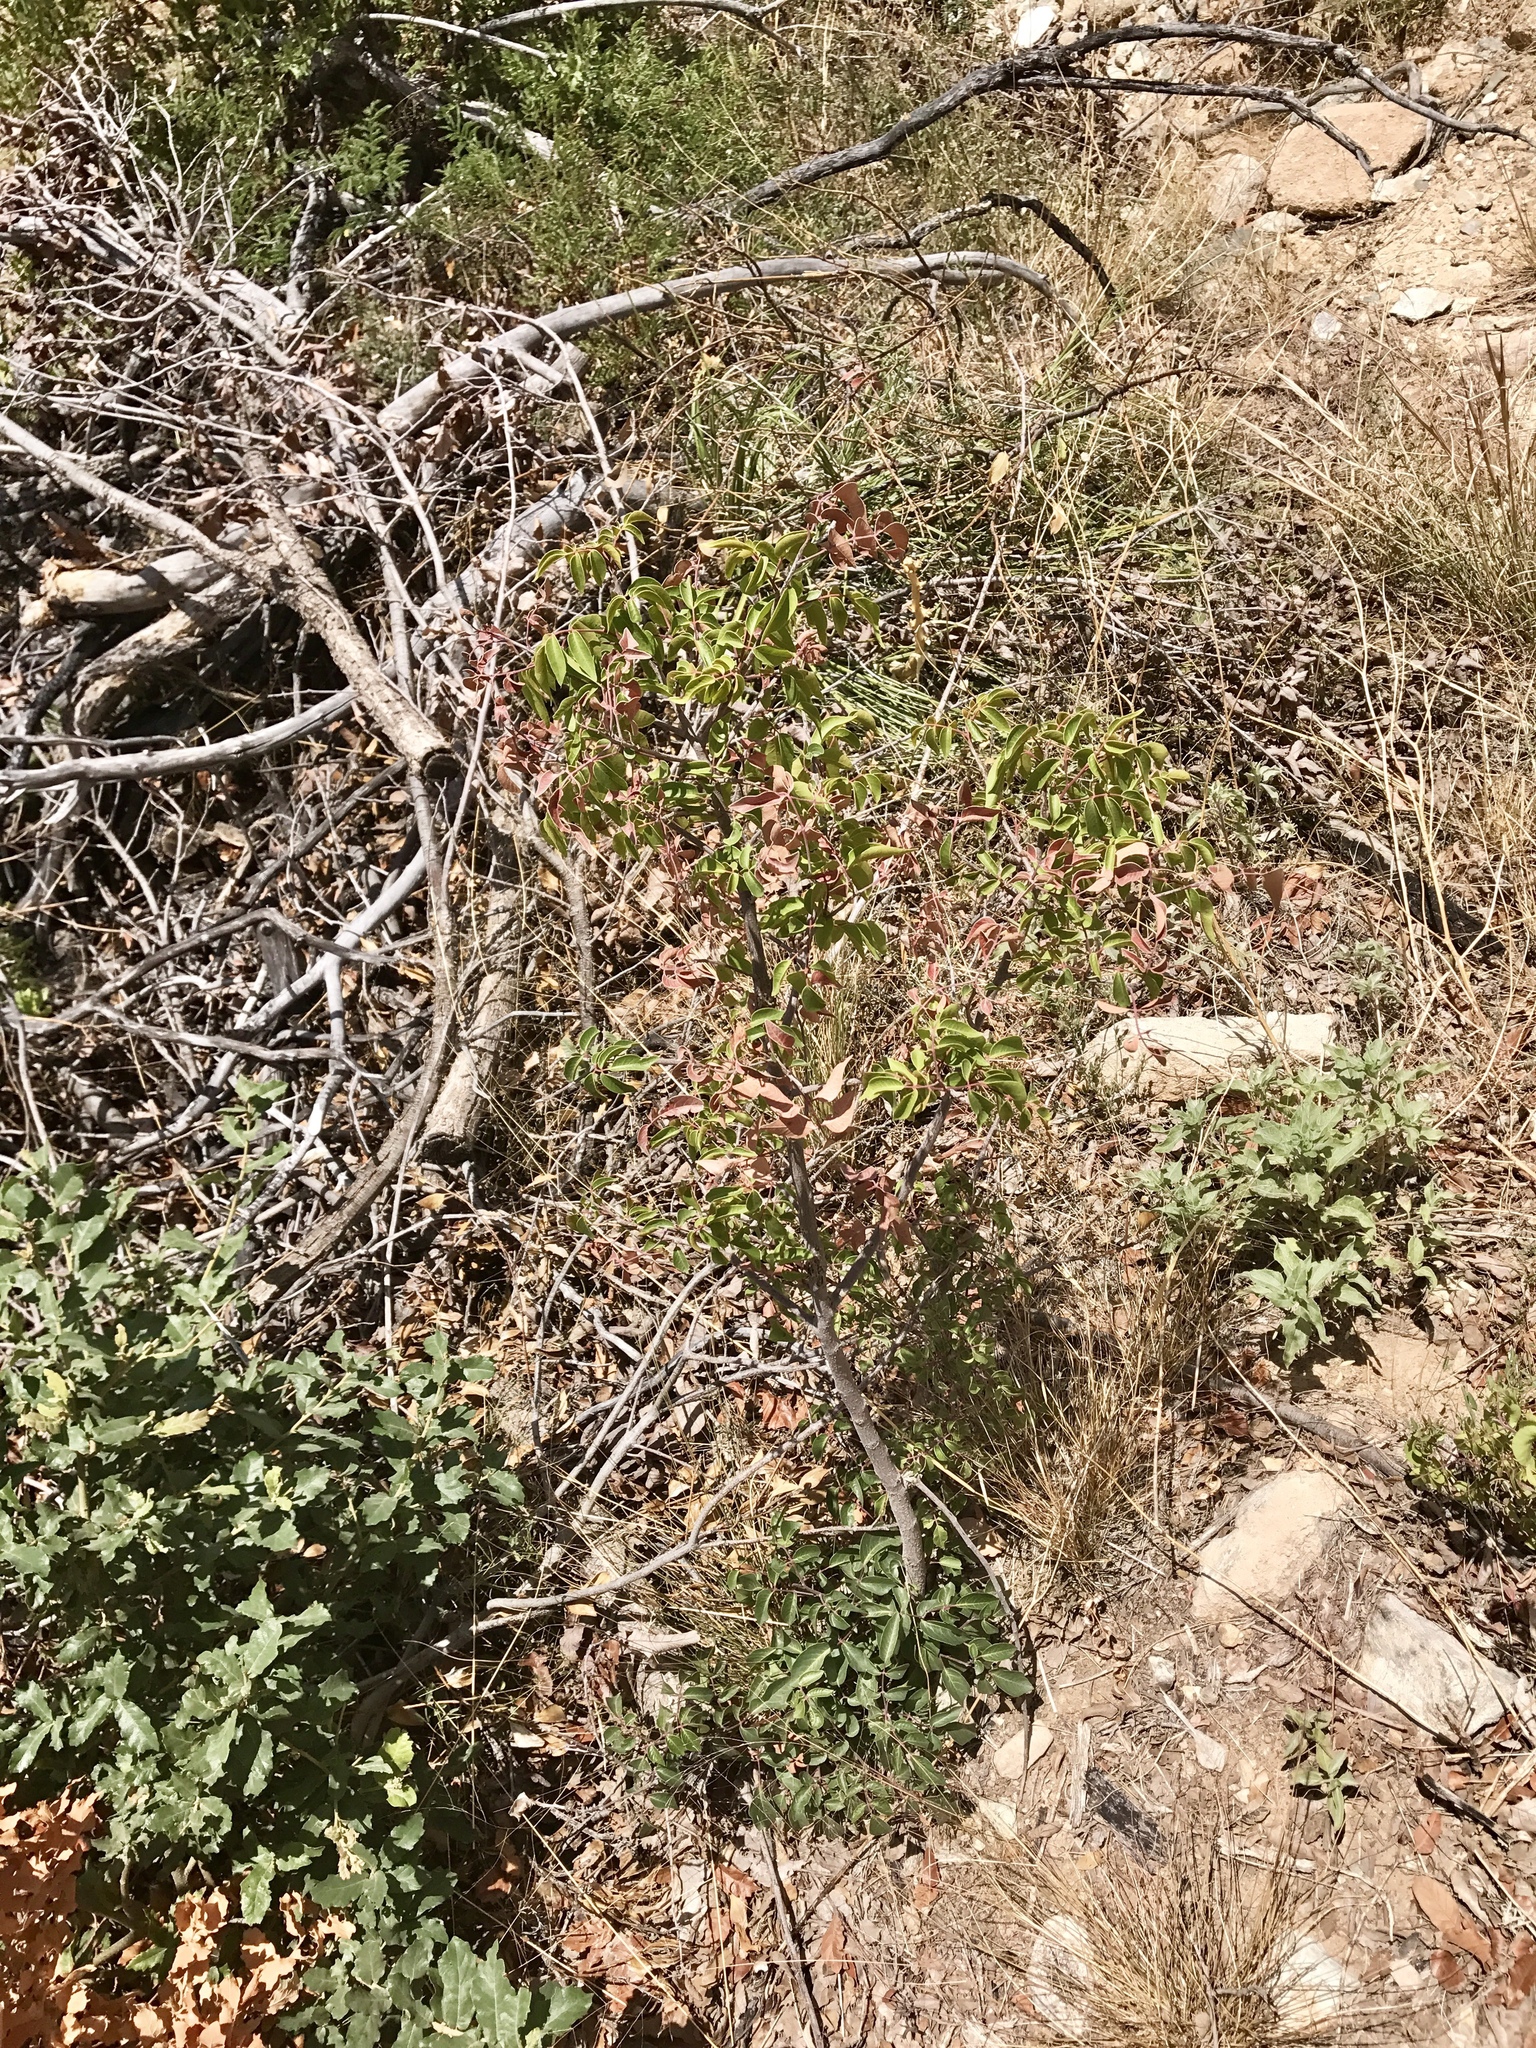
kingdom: Plantae
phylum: Tracheophyta
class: Magnoliopsida
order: Sapindales
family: Anacardiaceae
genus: Rhus
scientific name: Rhus virens
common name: Evergreen sumac
